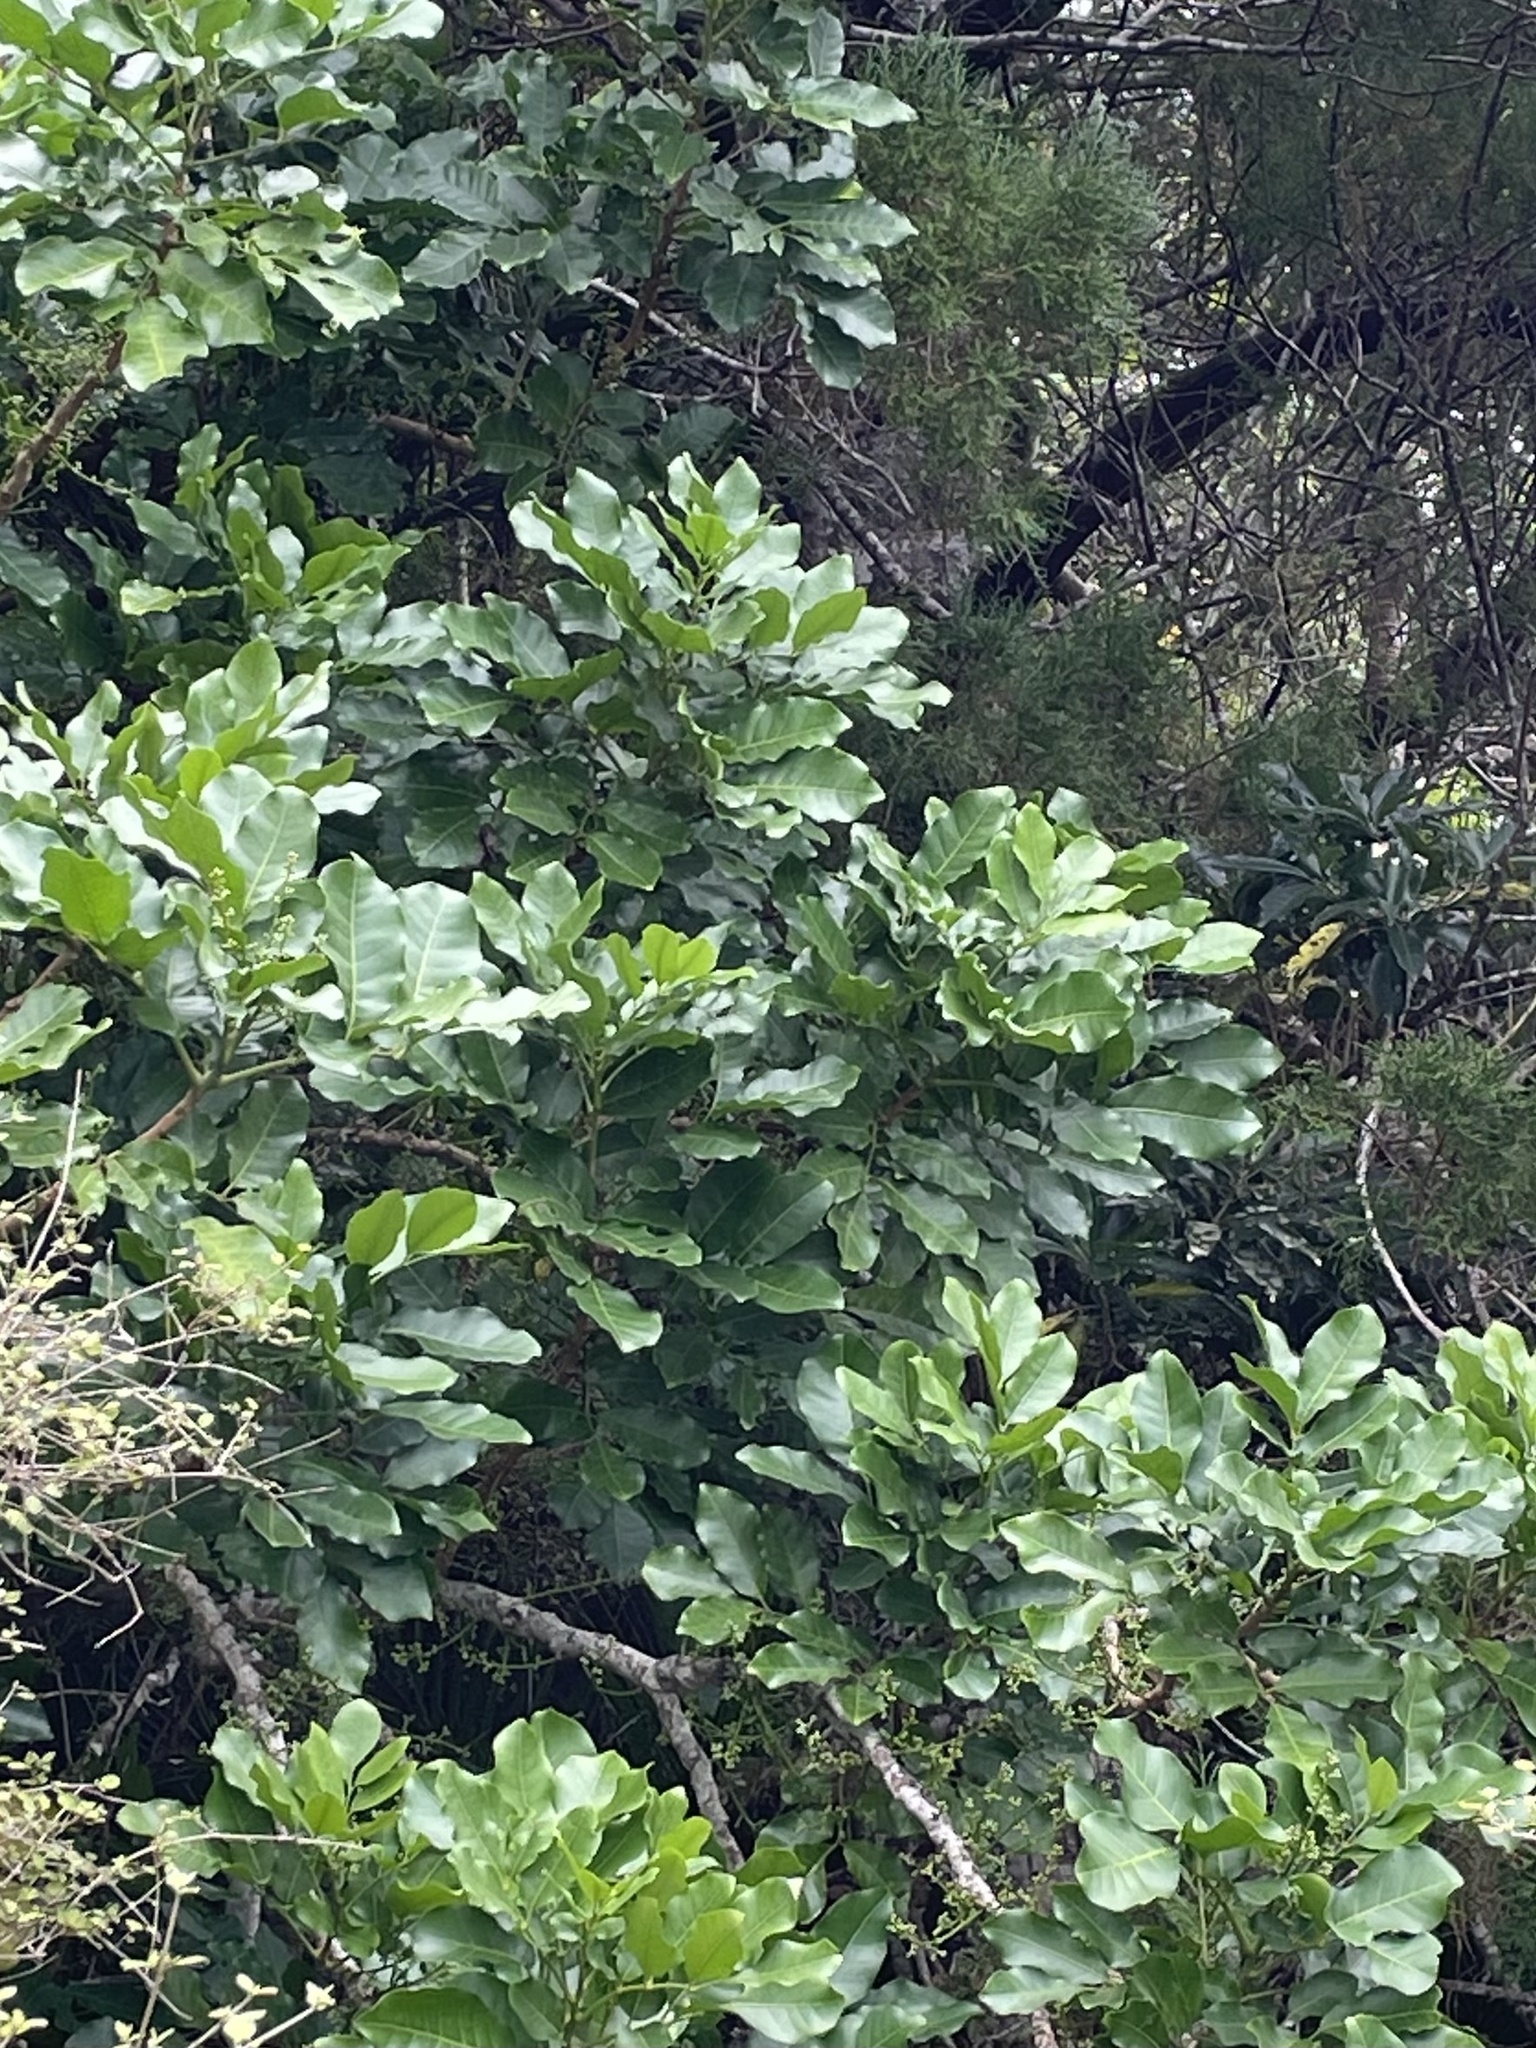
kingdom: Plantae
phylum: Tracheophyta
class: Magnoliopsida
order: Sapindales
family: Meliaceae
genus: Didymocheton
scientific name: Didymocheton spectabilis
